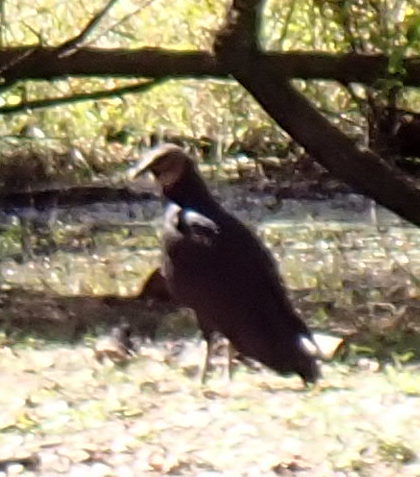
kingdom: Animalia
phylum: Chordata
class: Aves
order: Accipitriformes
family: Cathartidae
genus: Coragyps
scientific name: Coragyps atratus
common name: Black vulture
